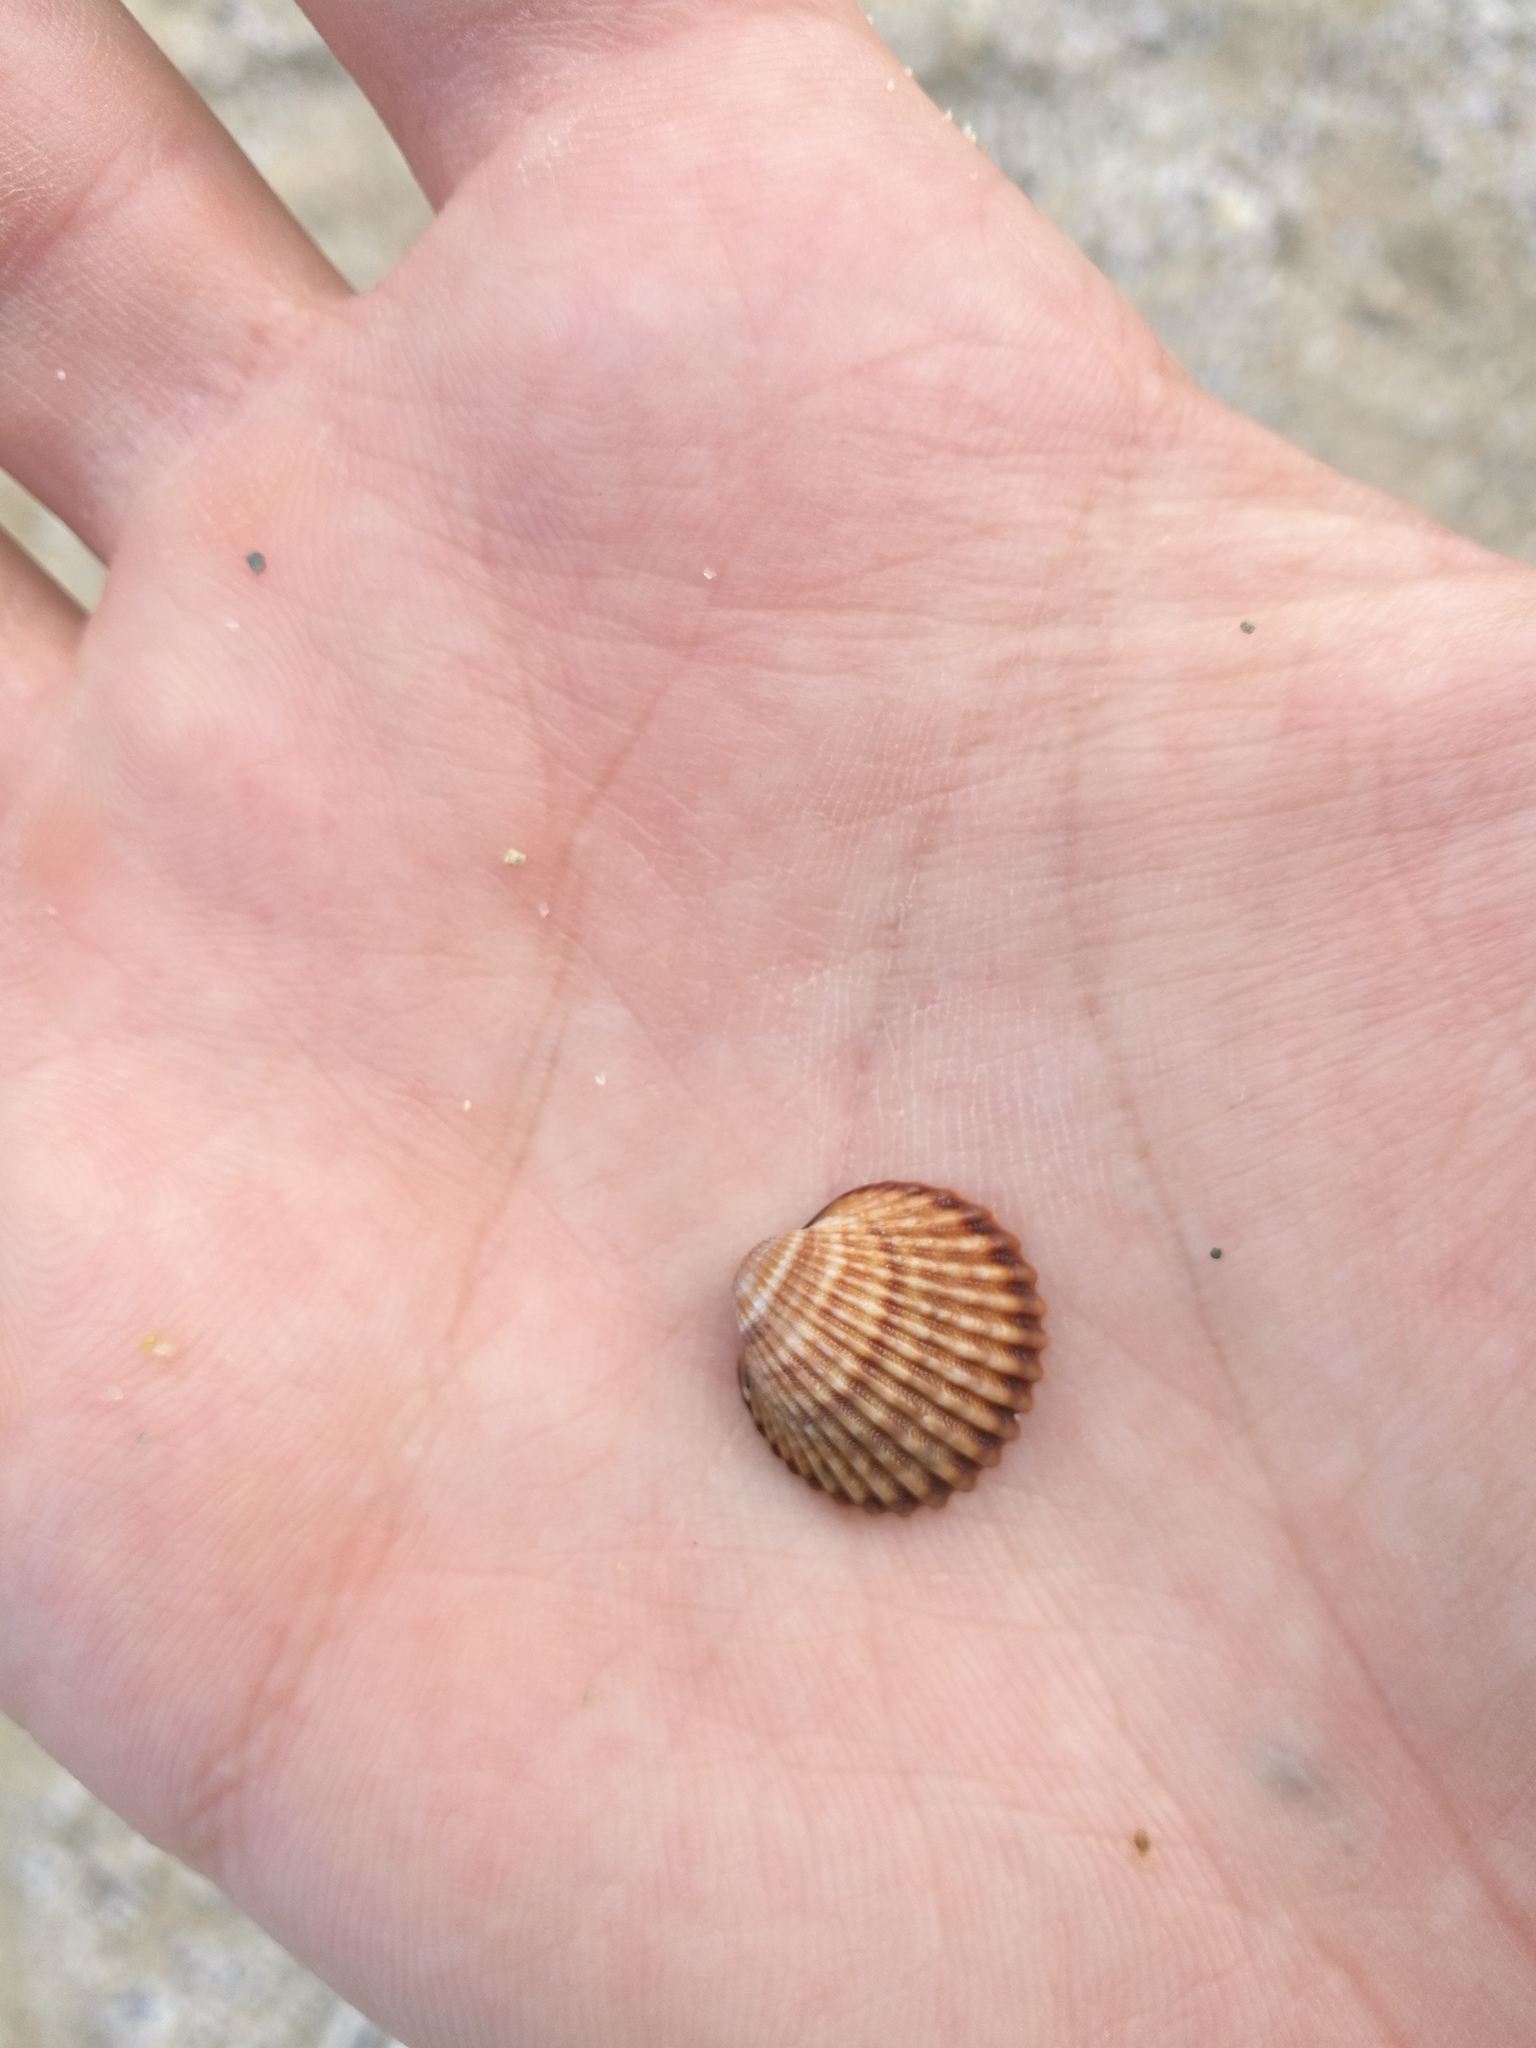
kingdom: Animalia
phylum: Mollusca
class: Bivalvia
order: Cardiida
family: Cardiidae
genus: Acanthocardia
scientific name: Acanthocardia tuberculata
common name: Rough cockle
